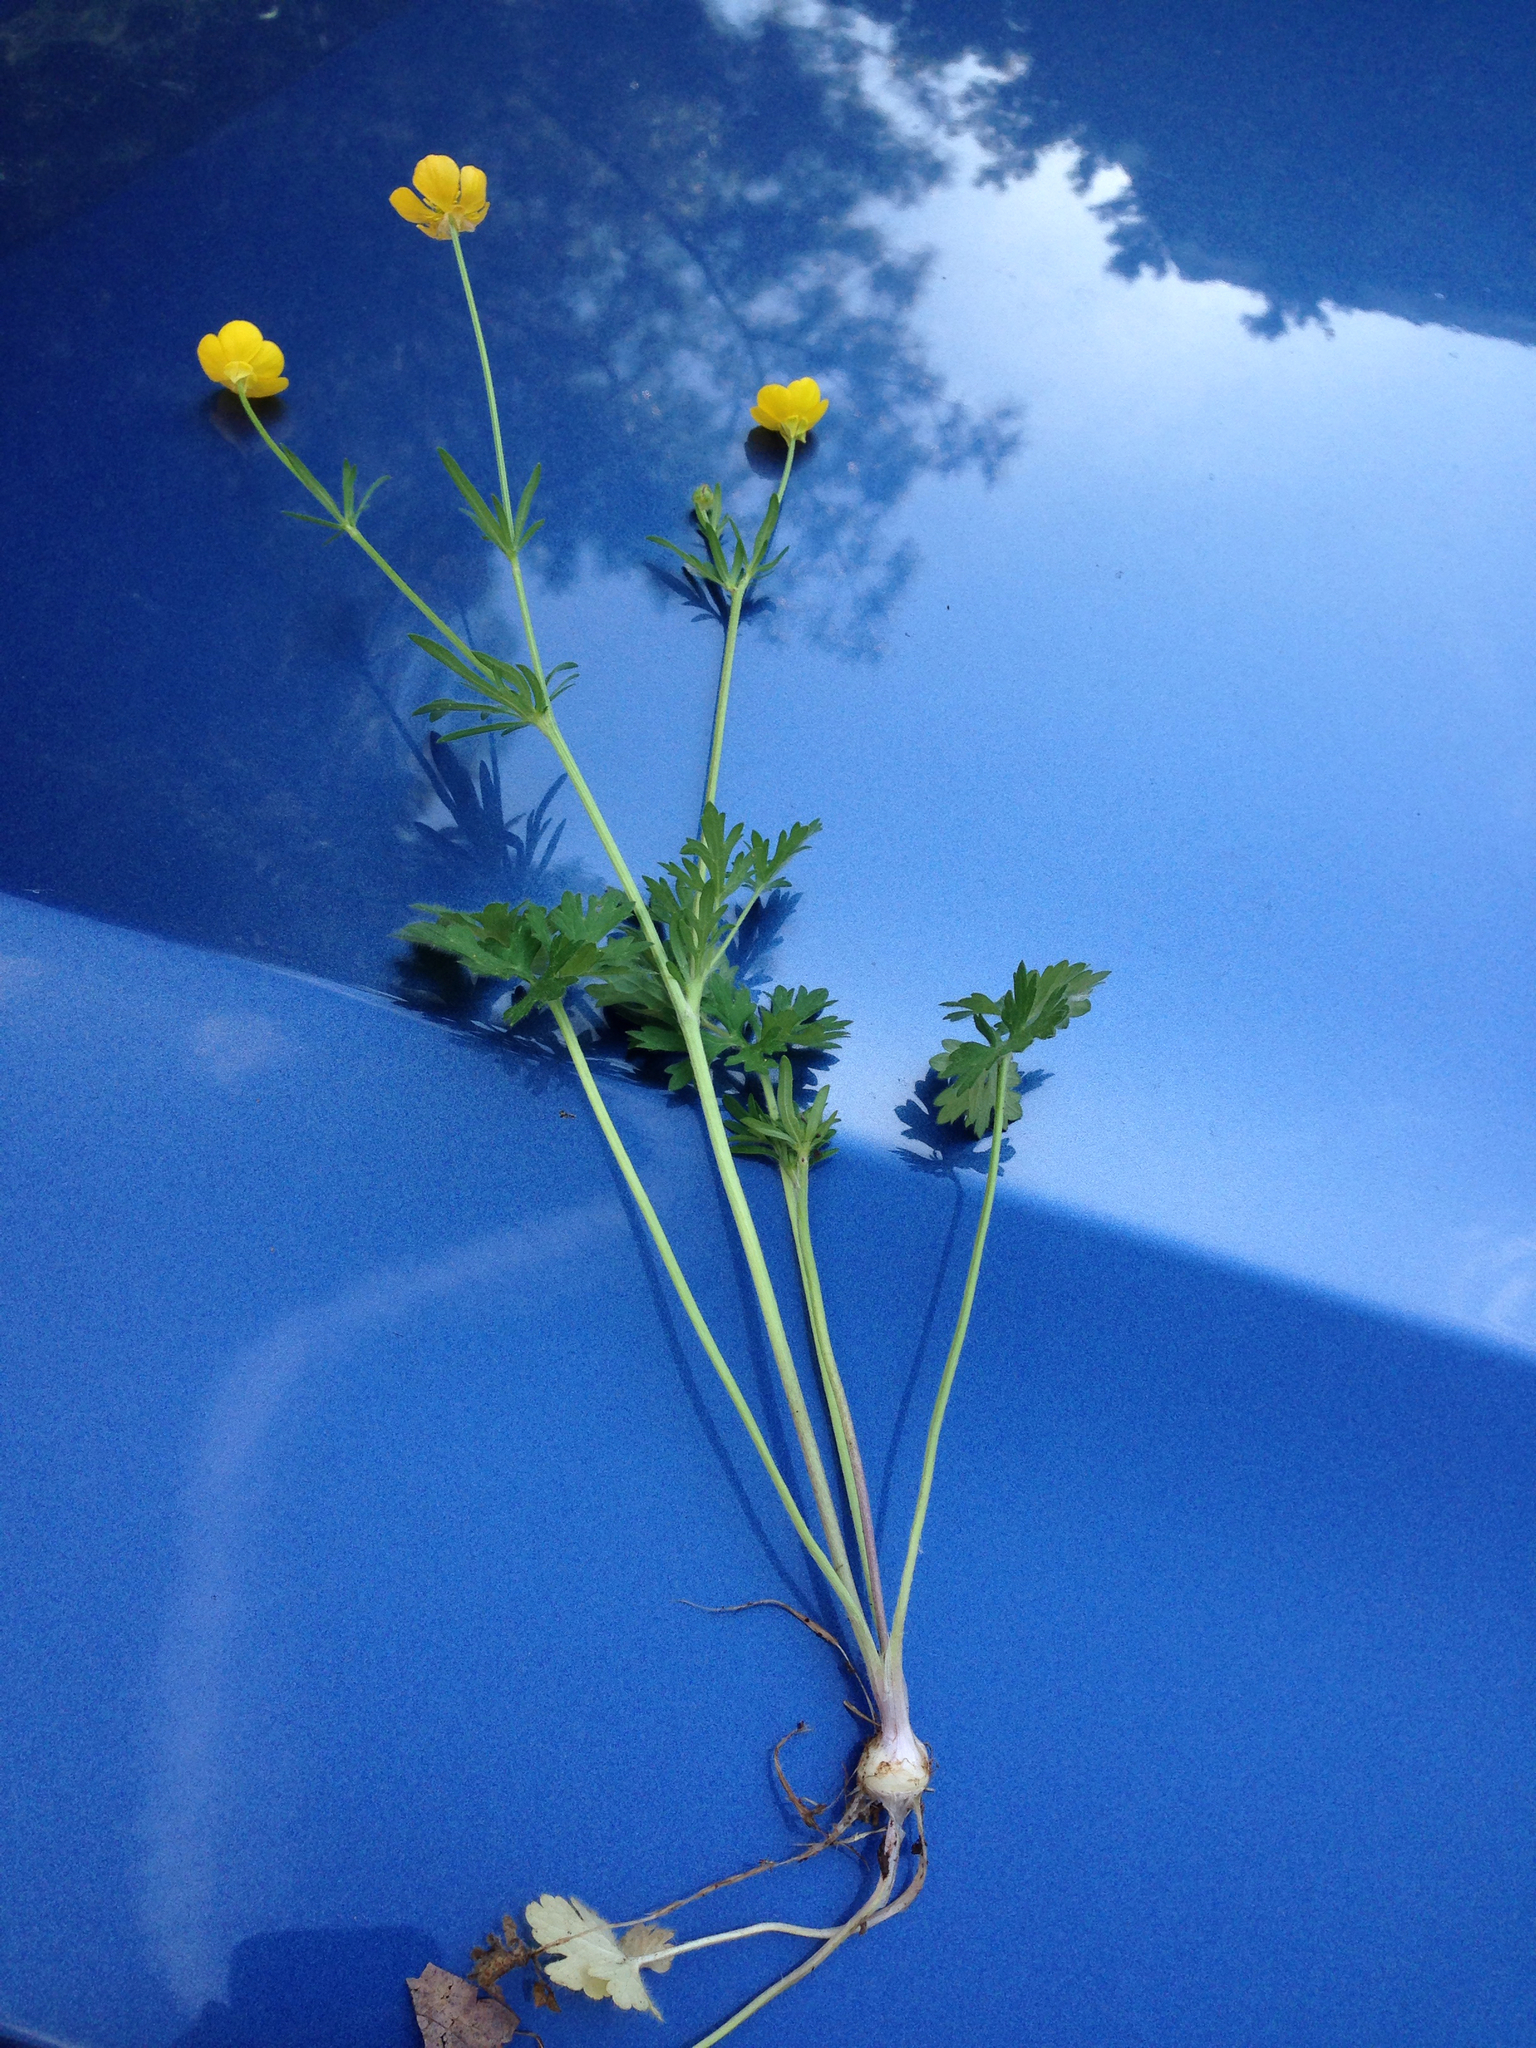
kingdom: Plantae
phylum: Tracheophyta
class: Magnoliopsida
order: Ranunculales
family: Ranunculaceae
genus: Ranunculus
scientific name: Ranunculus bulbosus
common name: Bulbous buttercup
